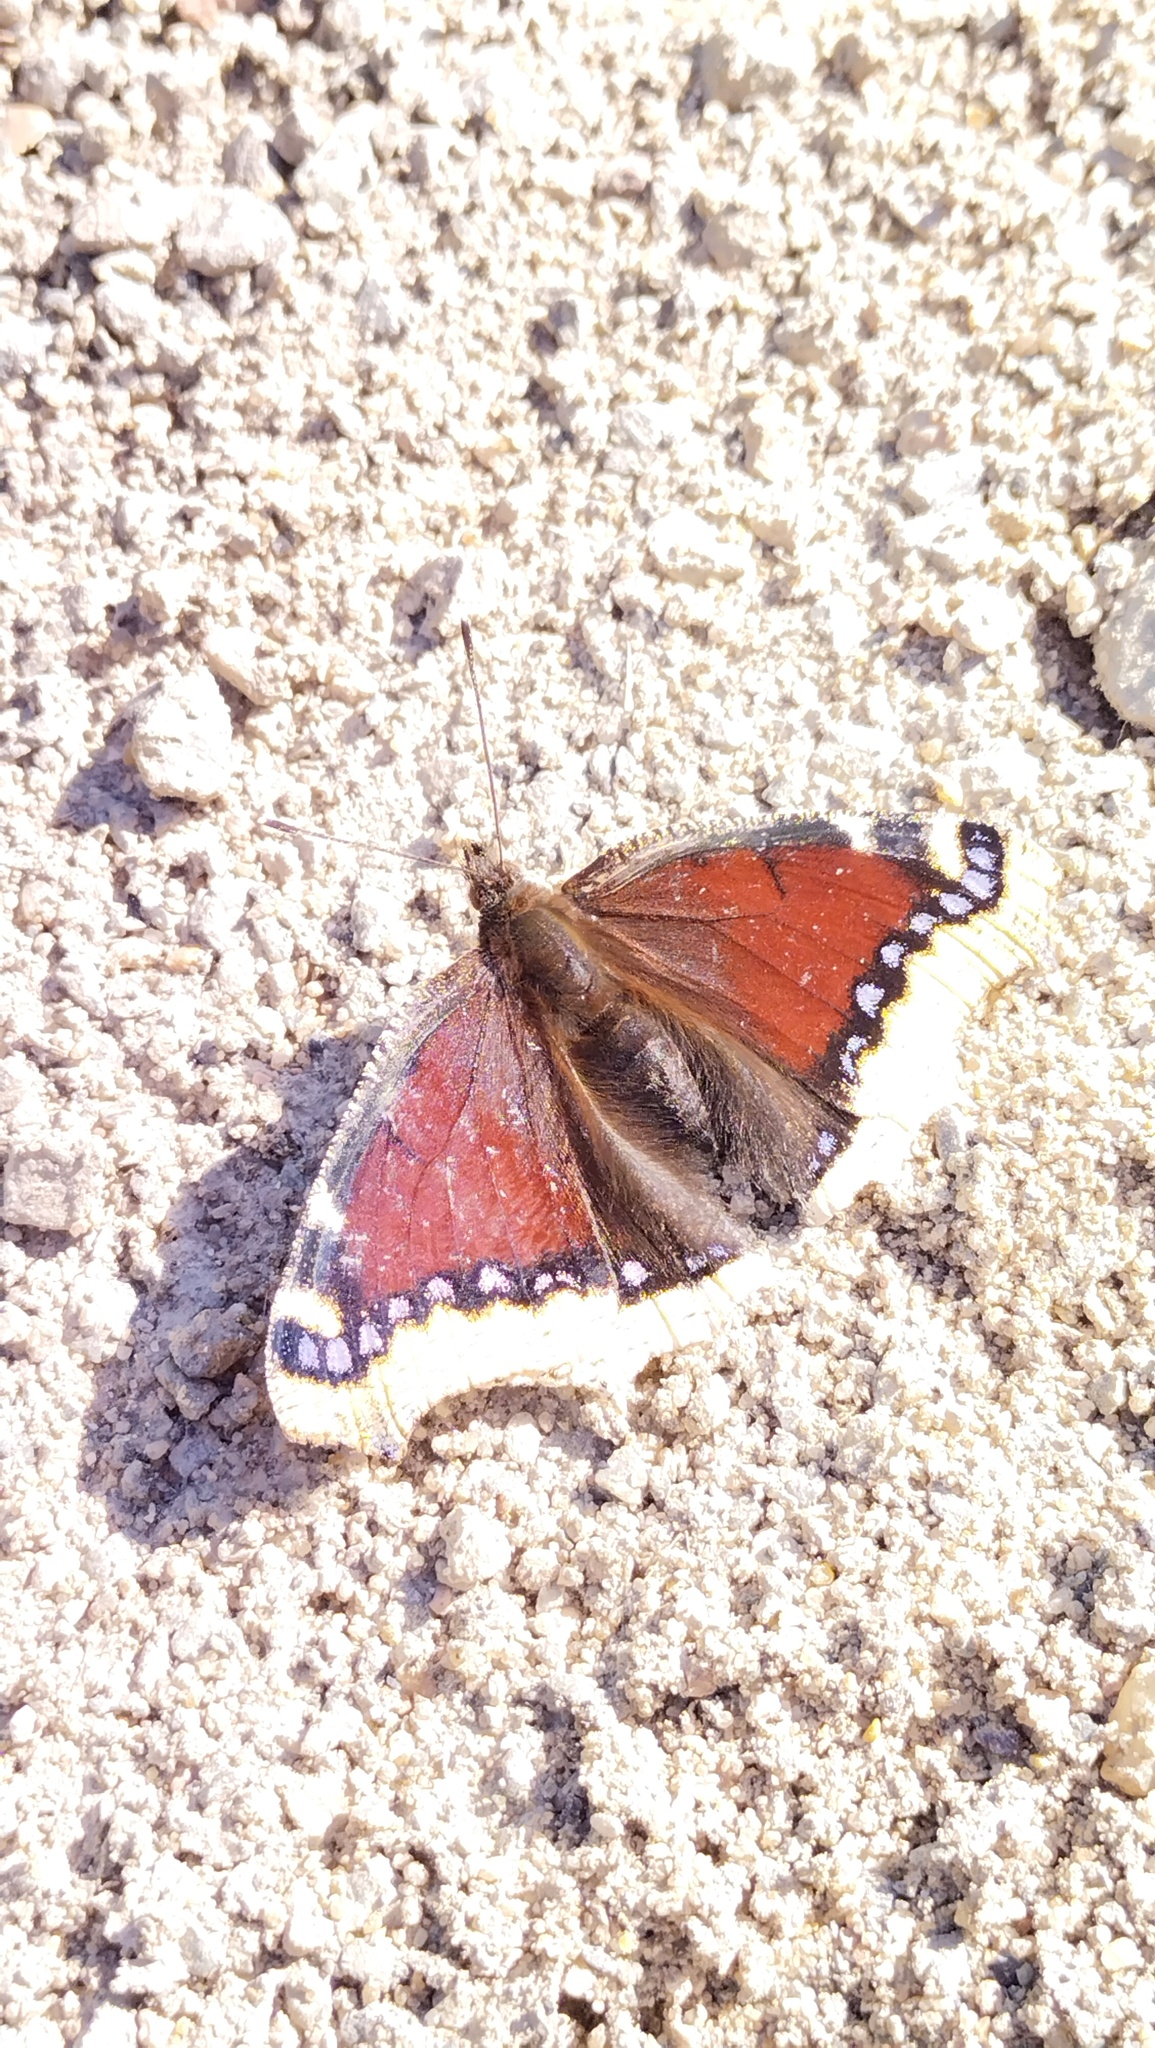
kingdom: Animalia
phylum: Arthropoda
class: Insecta
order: Lepidoptera
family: Nymphalidae
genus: Nymphalis
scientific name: Nymphalis antiopa
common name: Camberwell beauty
